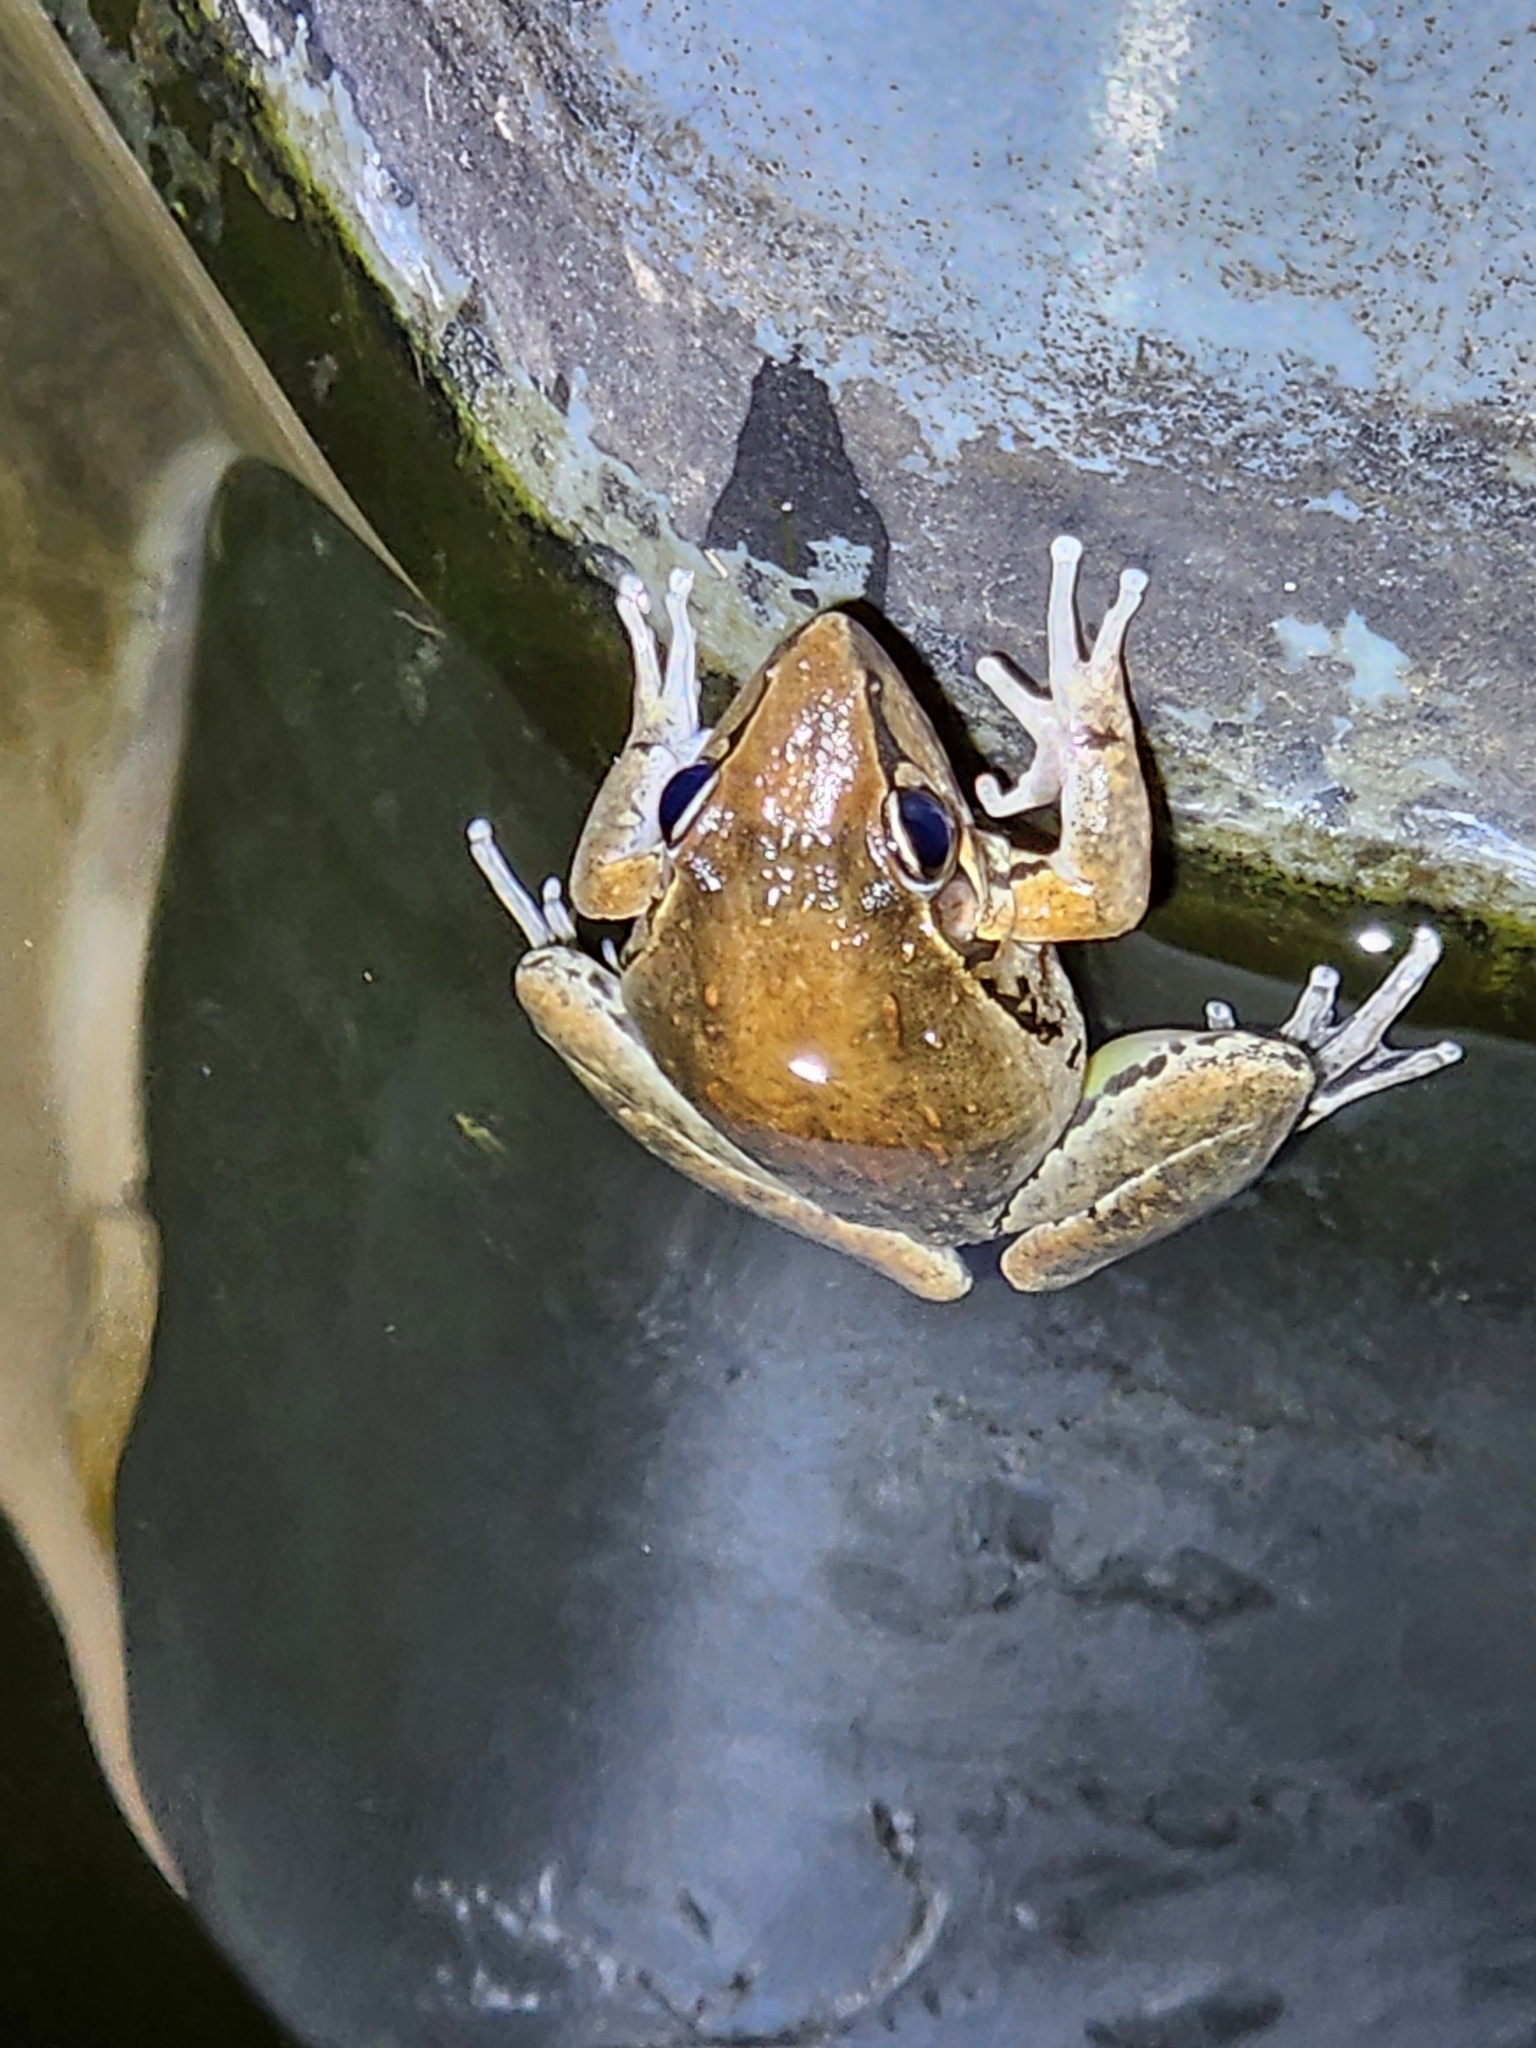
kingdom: Animalia
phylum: Chordata
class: Amphibia
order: Anura
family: Pelodryadidae
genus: Litoria
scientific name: Litoria latopalmata
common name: Broad-palmed rocket frog
